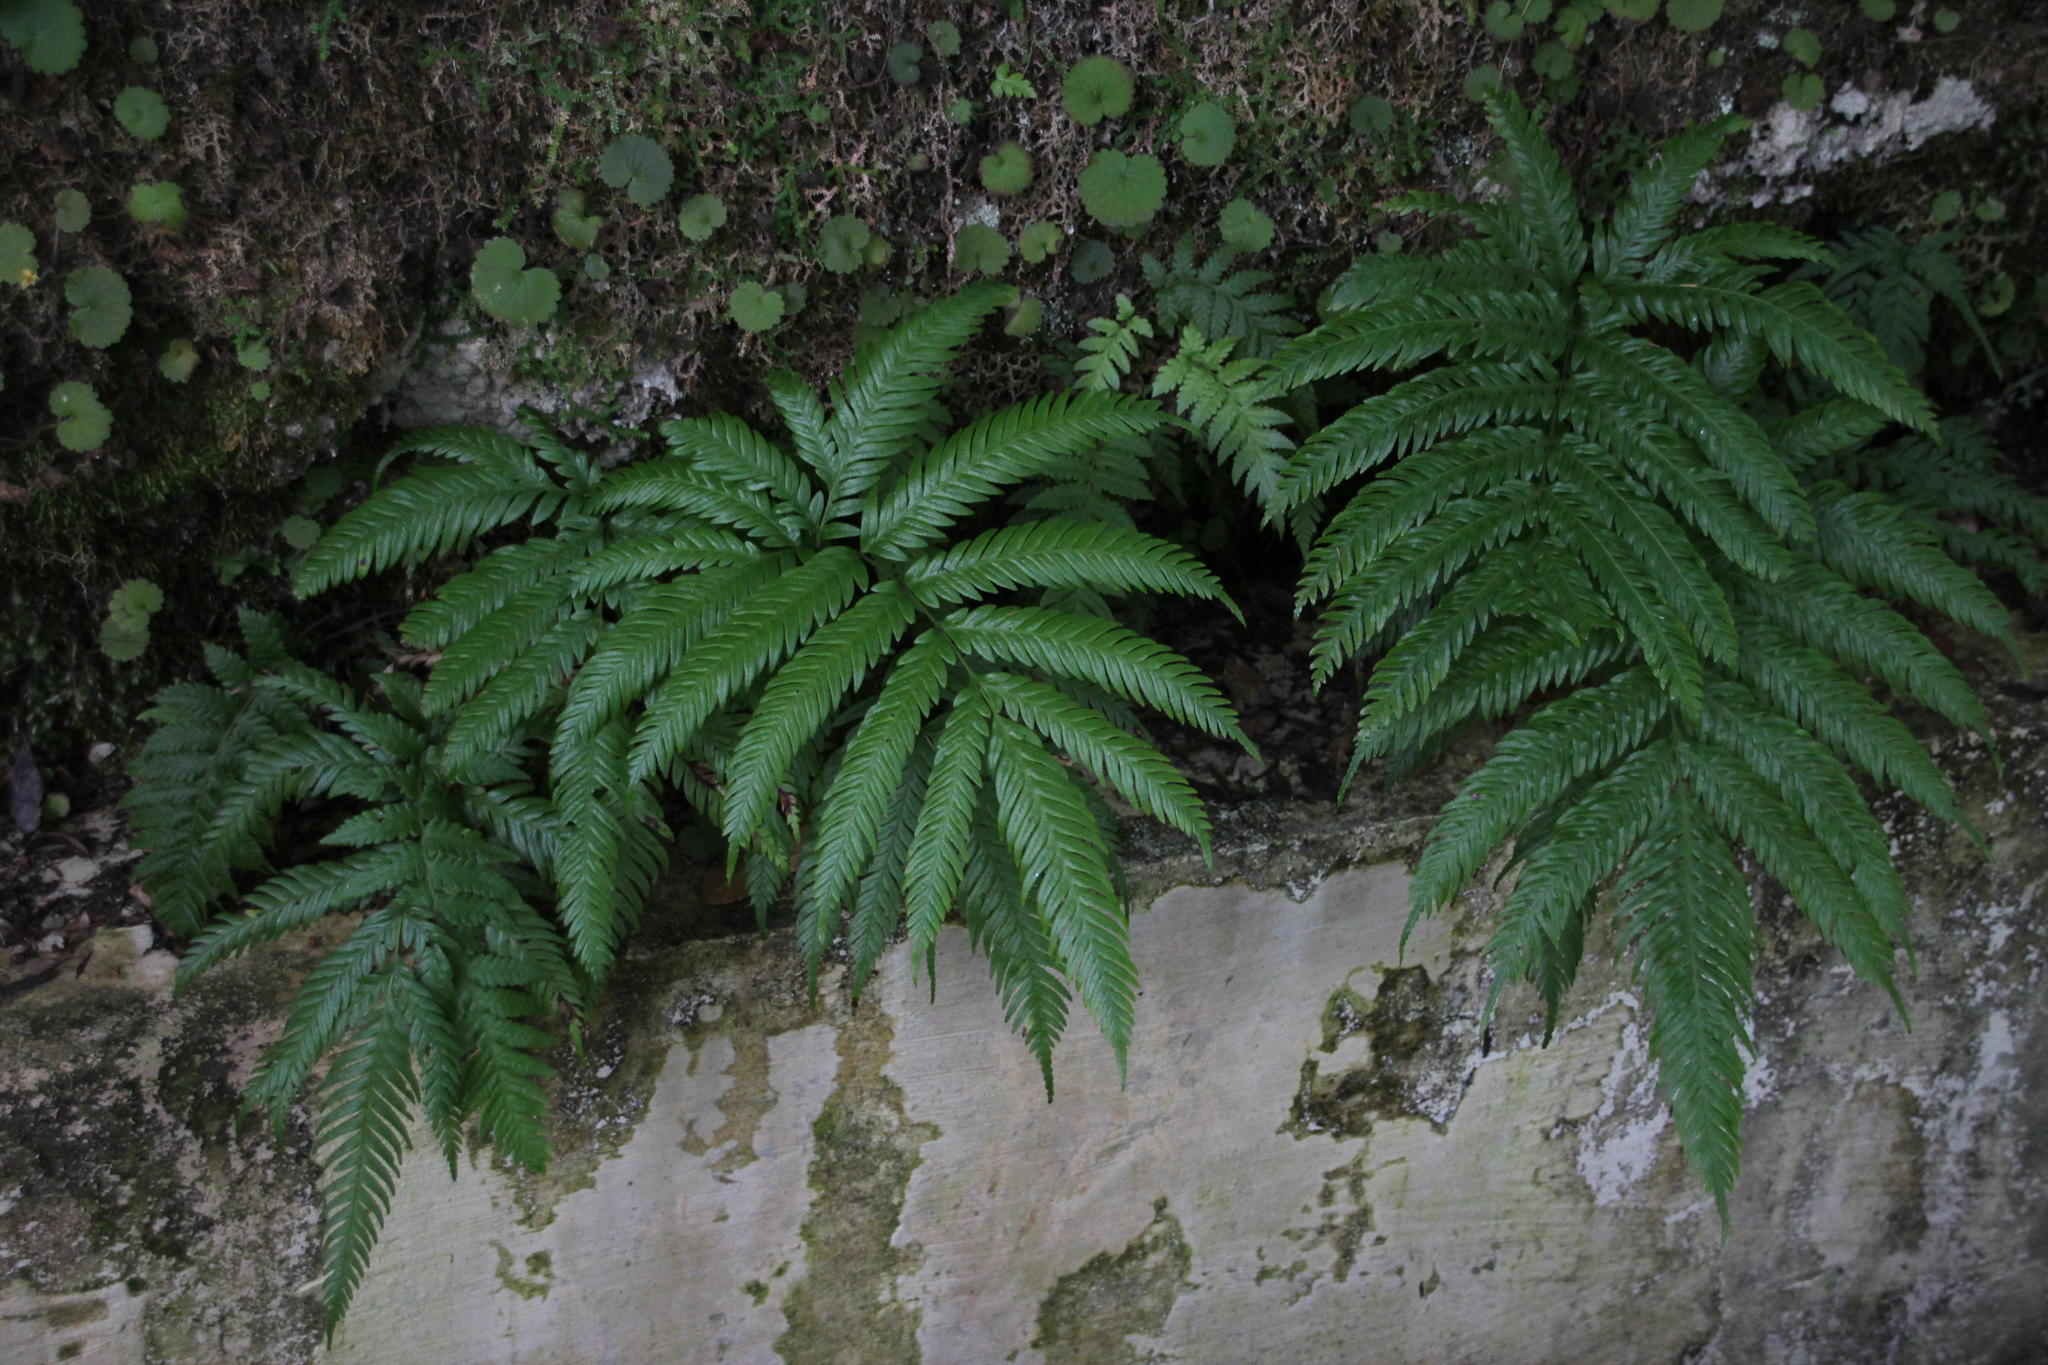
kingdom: Plantae
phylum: Tracheophyta
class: Polypodiopsida
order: Polypodiales
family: Blechnaceae
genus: Woodwardia
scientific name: Woodwardia radicans
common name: Rooting chainfern
